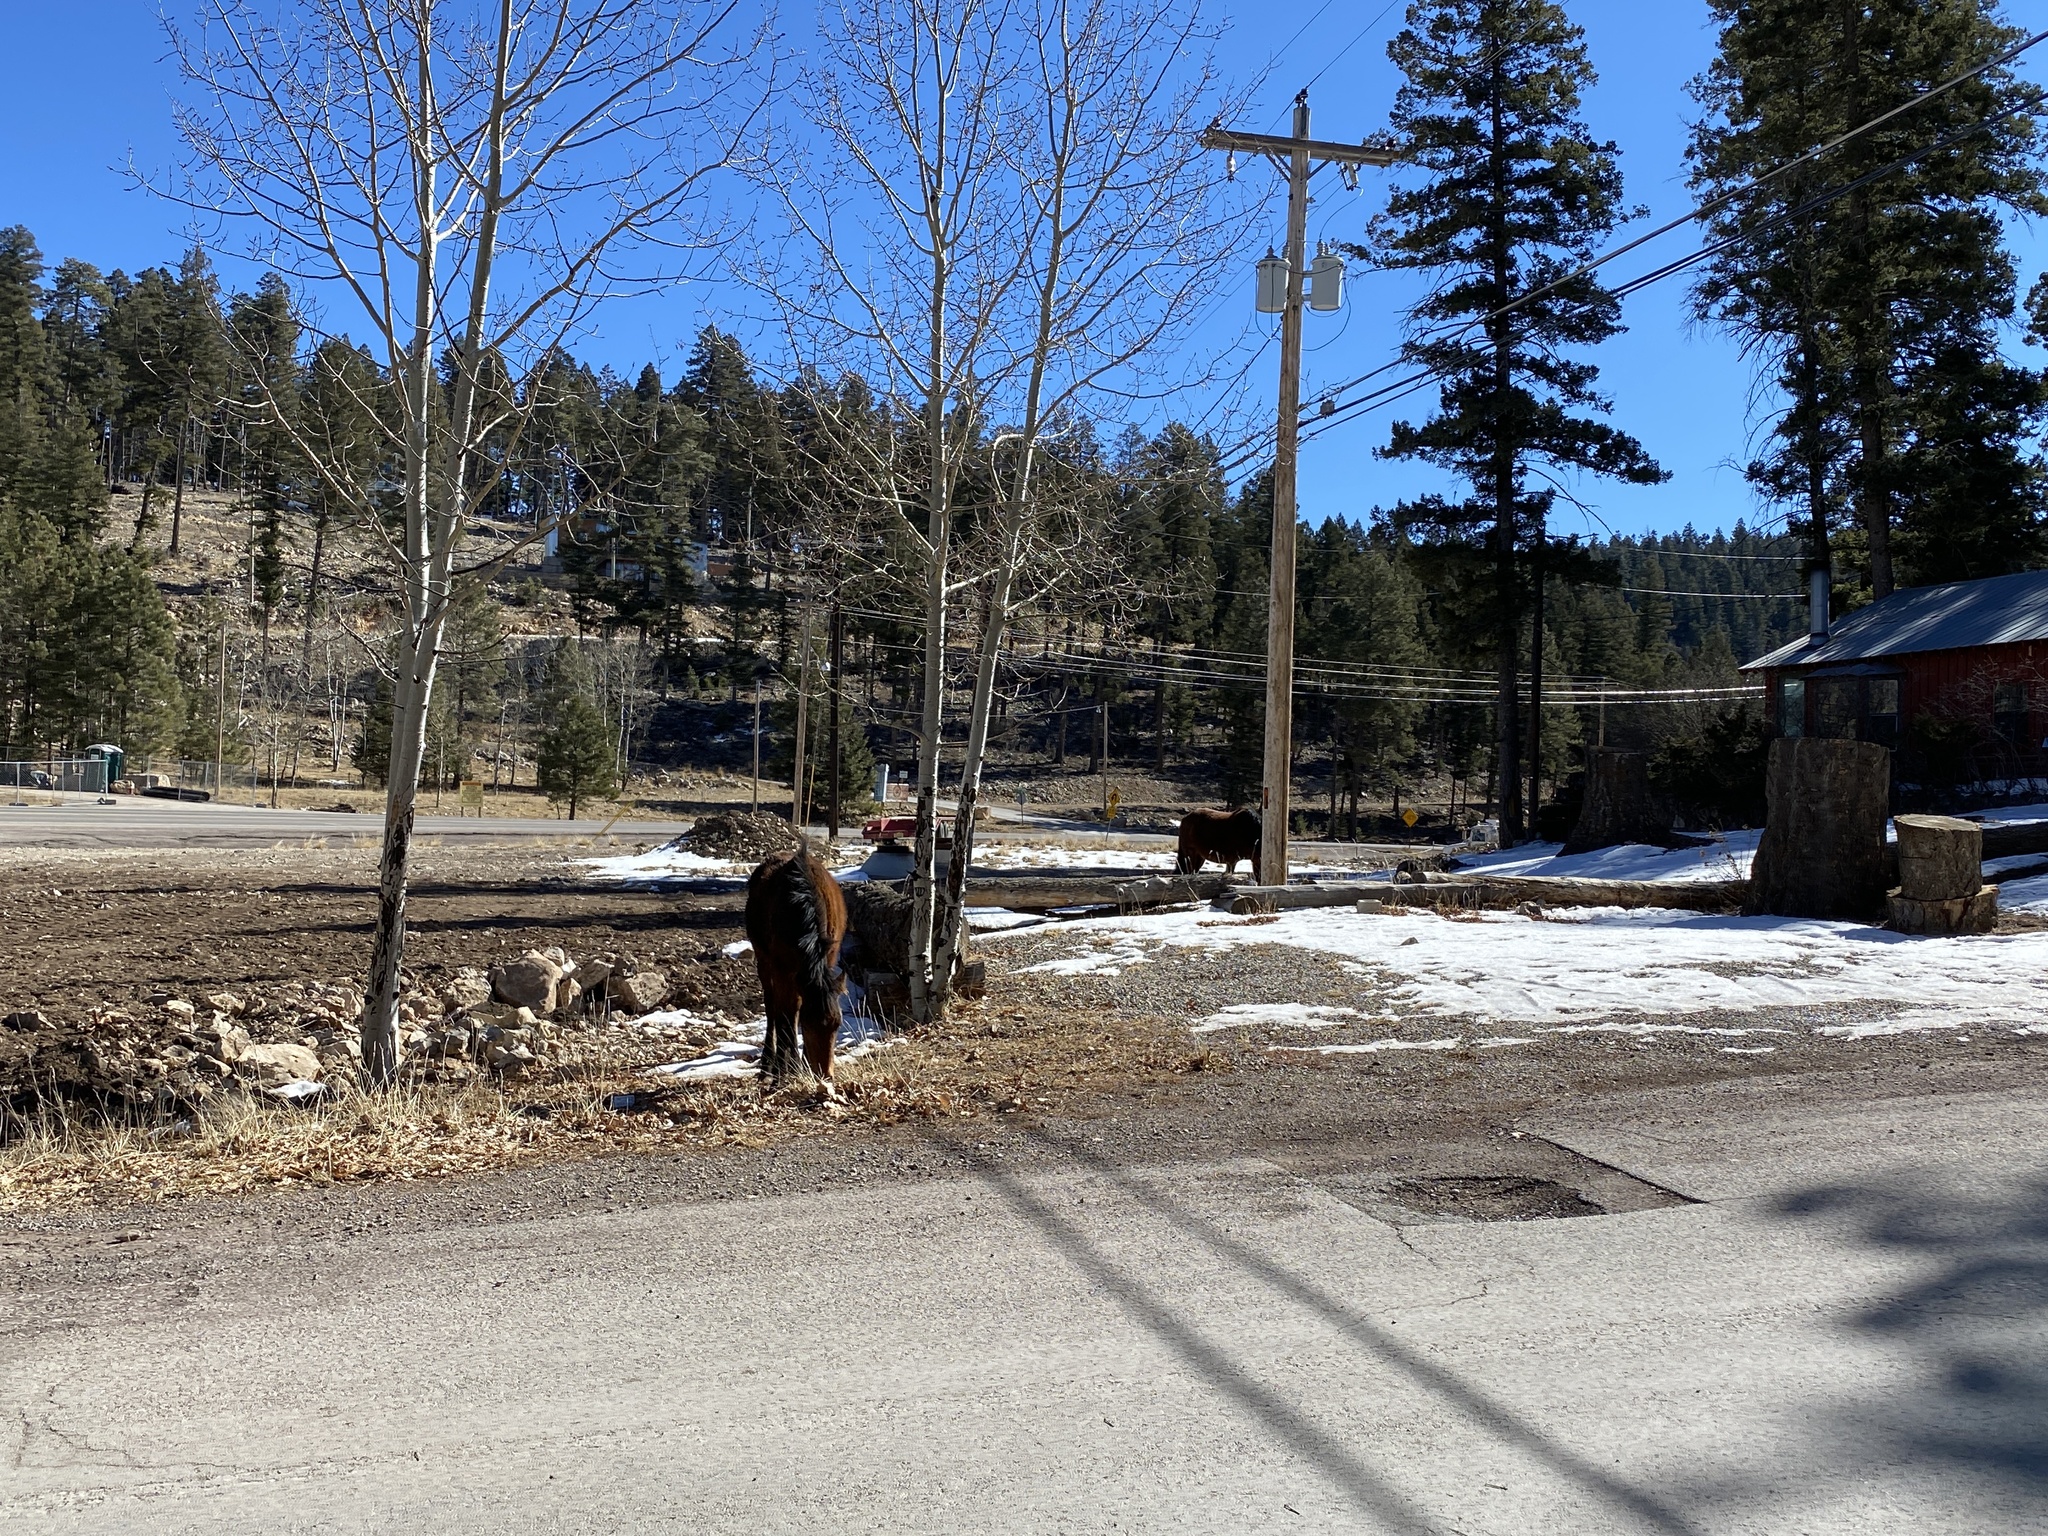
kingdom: Animalia
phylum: Chordata
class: Mammalia
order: Perissodactyla
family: Equidae
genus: Equus
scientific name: Equus caballus
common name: Horse
